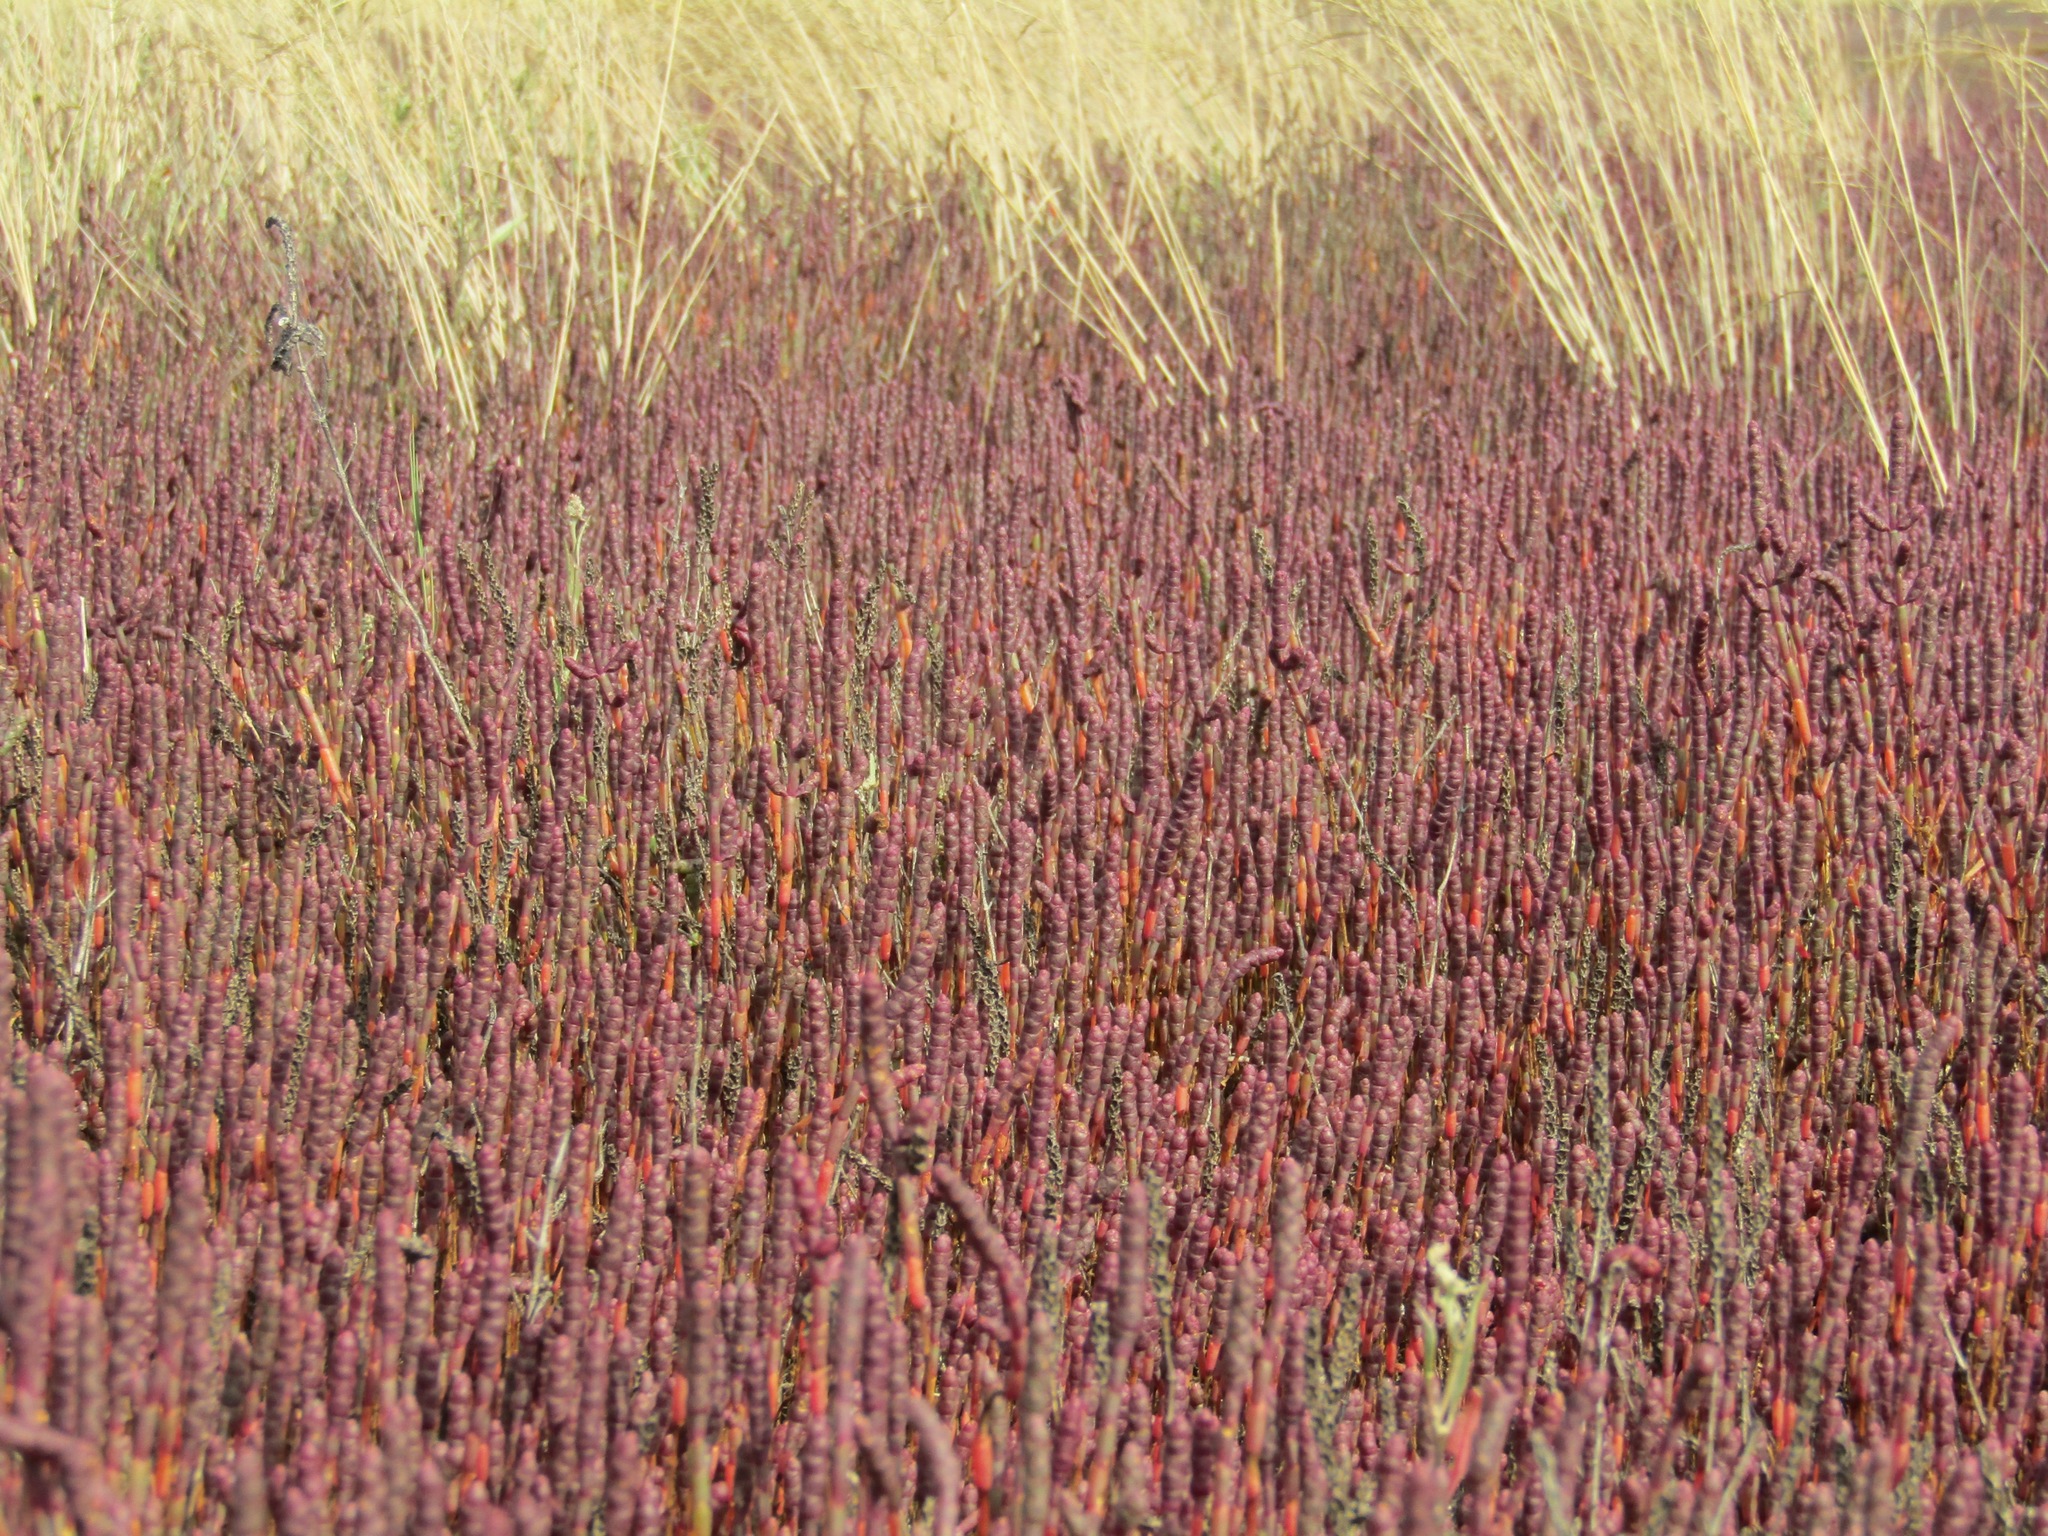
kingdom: Plantae
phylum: Tracheophyta
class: Magnoliopsida
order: Caryophyllales
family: Amaranthaceae
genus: Salicornia
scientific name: Salicornia perennans
